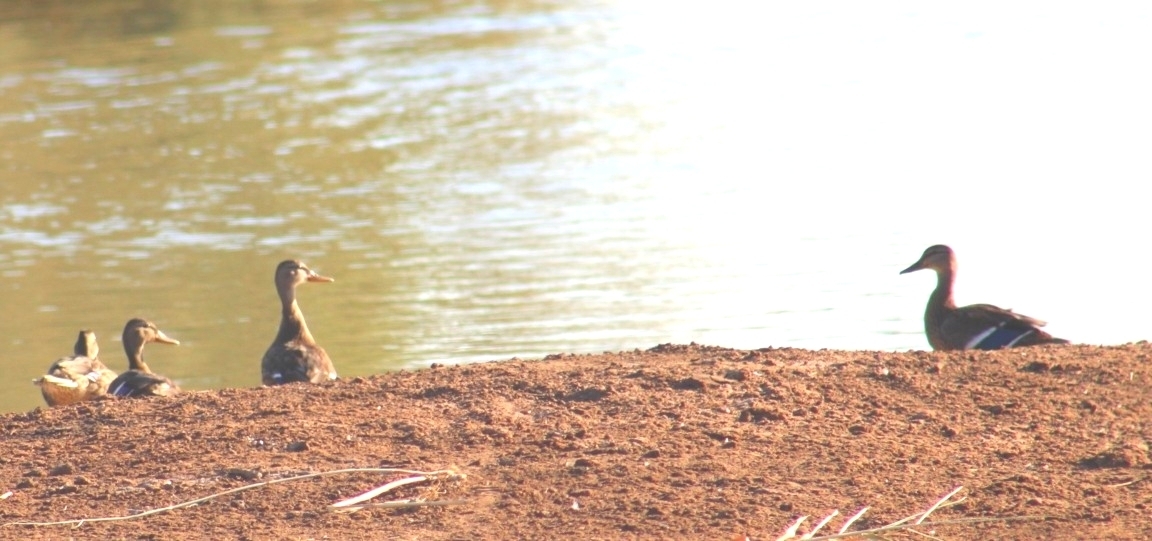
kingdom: Animalia
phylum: Chordata
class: Aves
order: Anseriformes
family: Anatidae
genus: Anas
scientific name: Anas platyrhynchos
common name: Mallard
